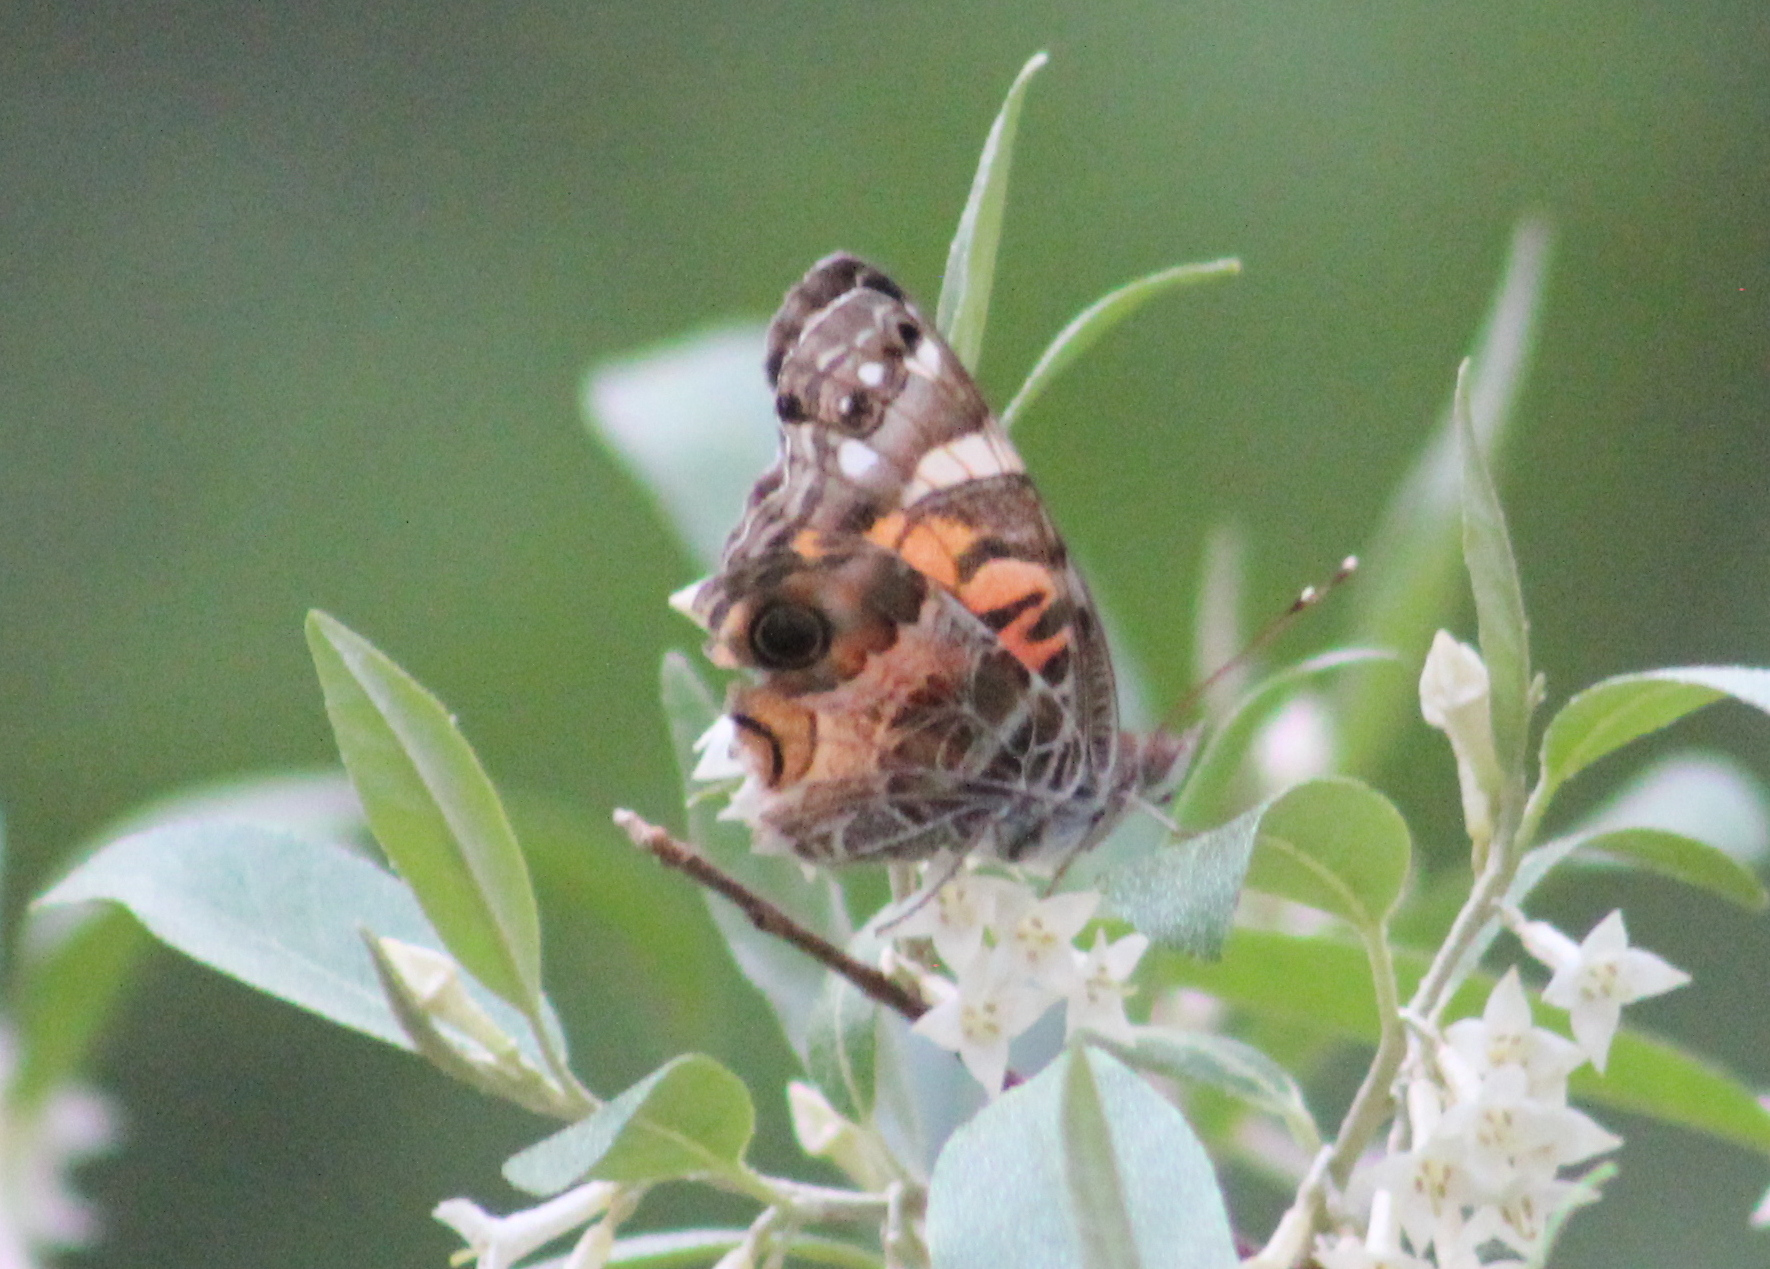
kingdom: Animalia
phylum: Arthropoda
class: Insecta
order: Lepidoptera
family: Nymphalidae
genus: Vanessa
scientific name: Vanessa virginiensis
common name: American lady
